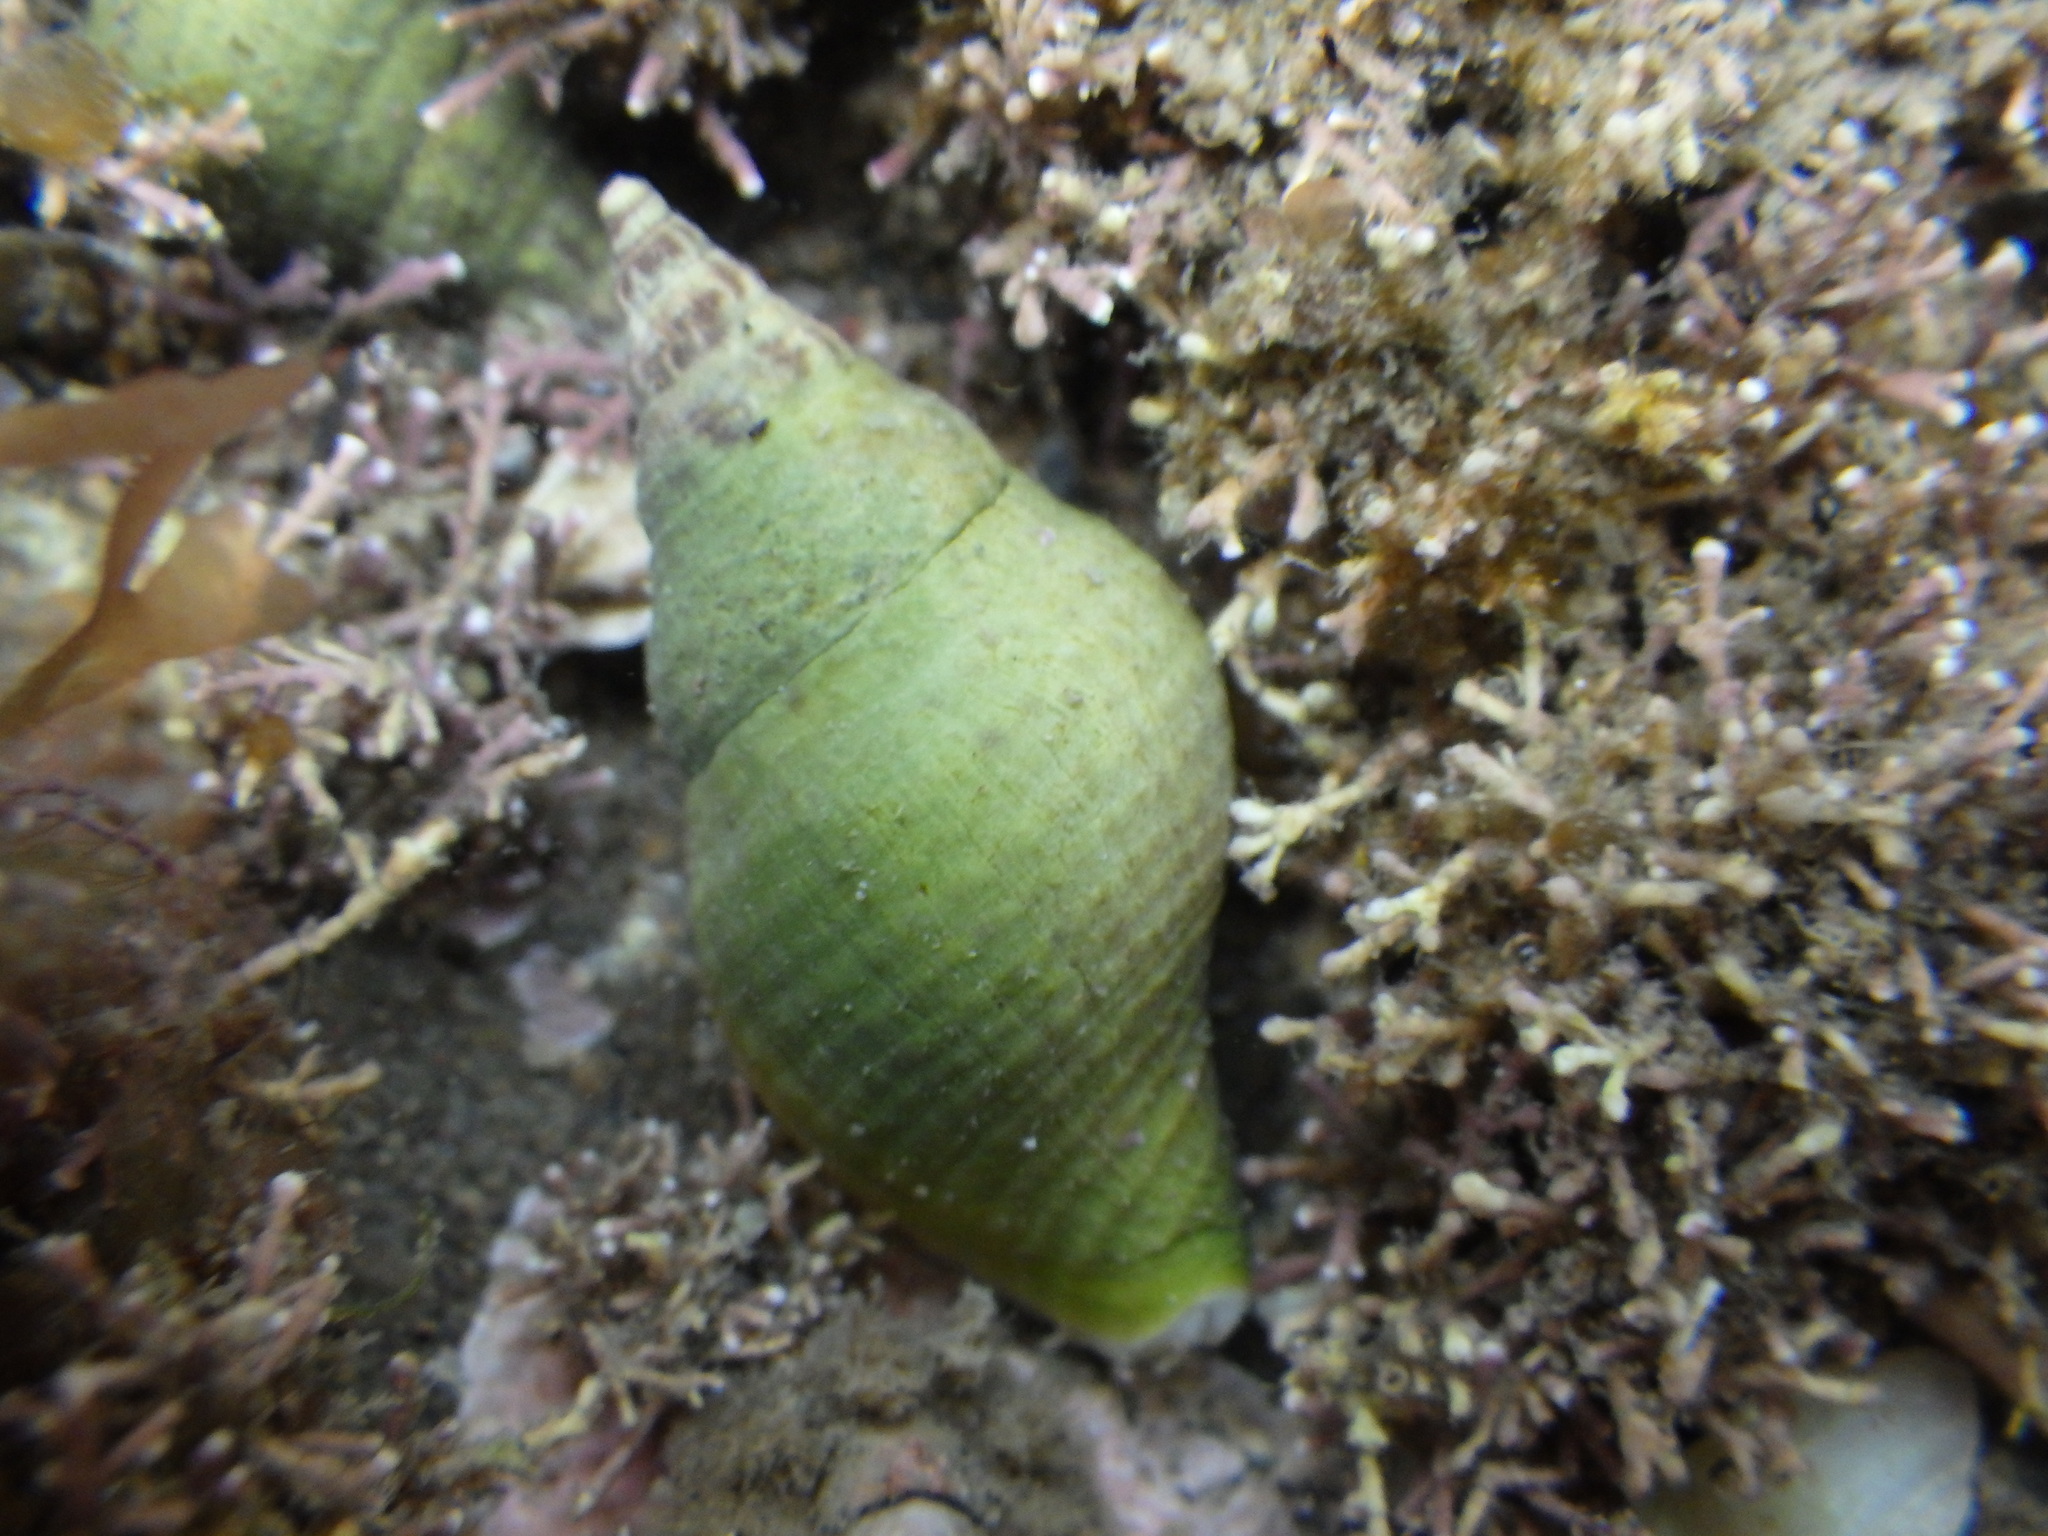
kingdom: Animalia
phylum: Mollusca
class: Gastropoda
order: Neogastropoda
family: Tudiclidae
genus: Buccinulum
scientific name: Buccinulum vittatum
